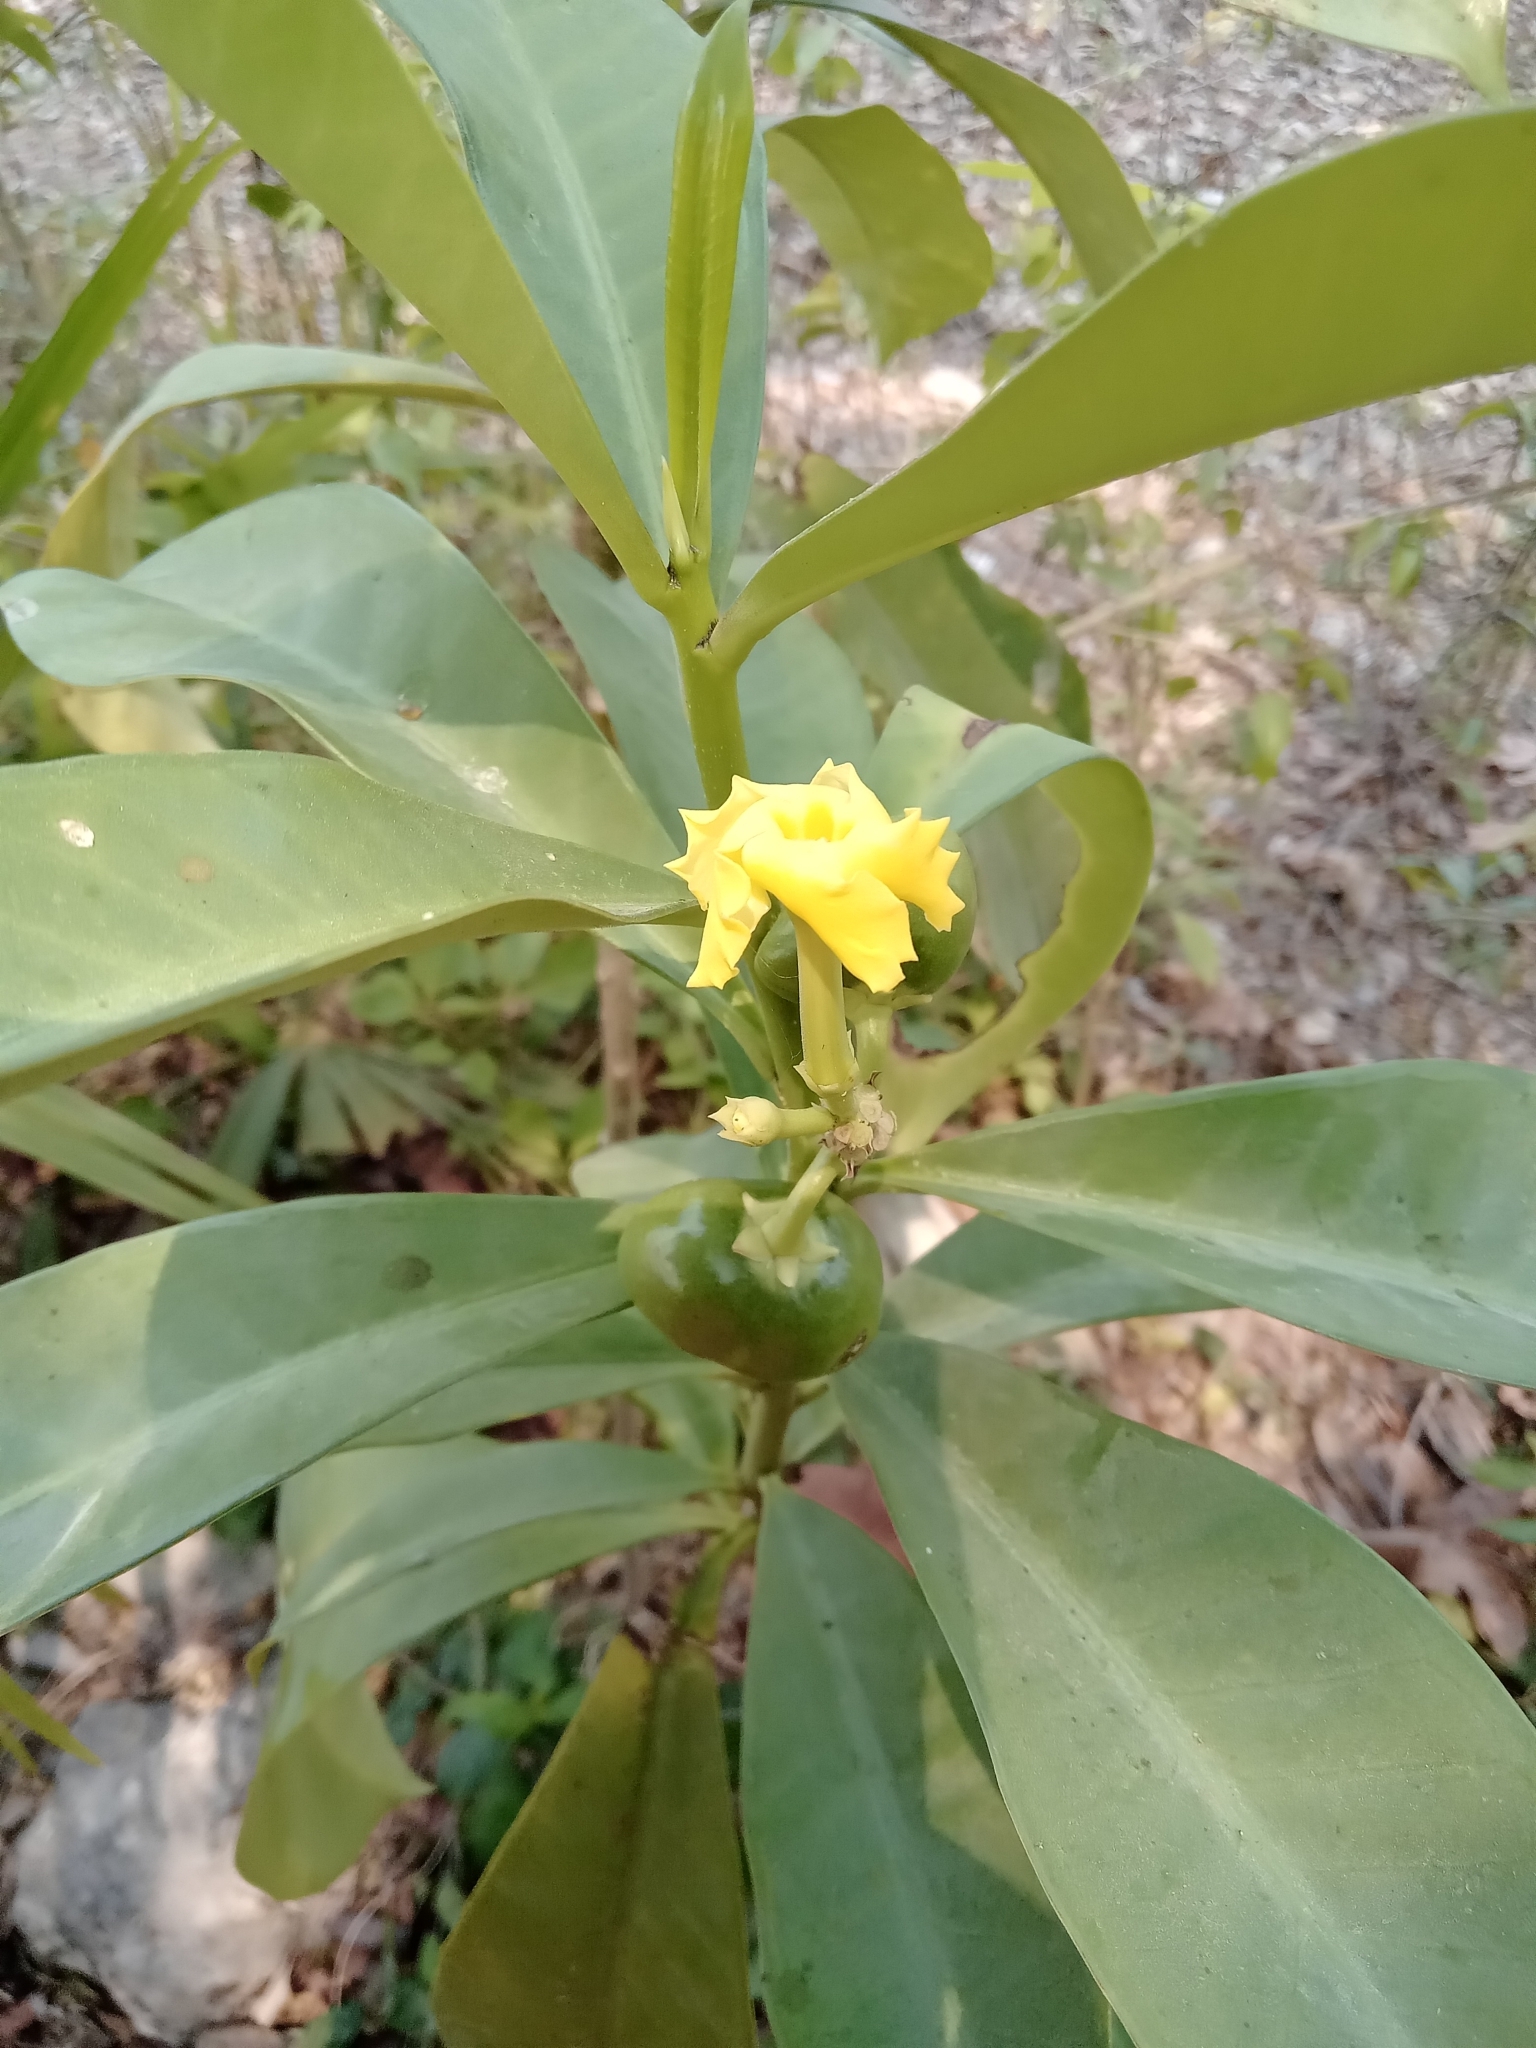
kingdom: Plantae
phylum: Tracheophyta
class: Magnoliopsida
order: Gentianales
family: Apocynaceae
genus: Thevetia
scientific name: Thevetia ahouai
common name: Broadleaf thevetia
